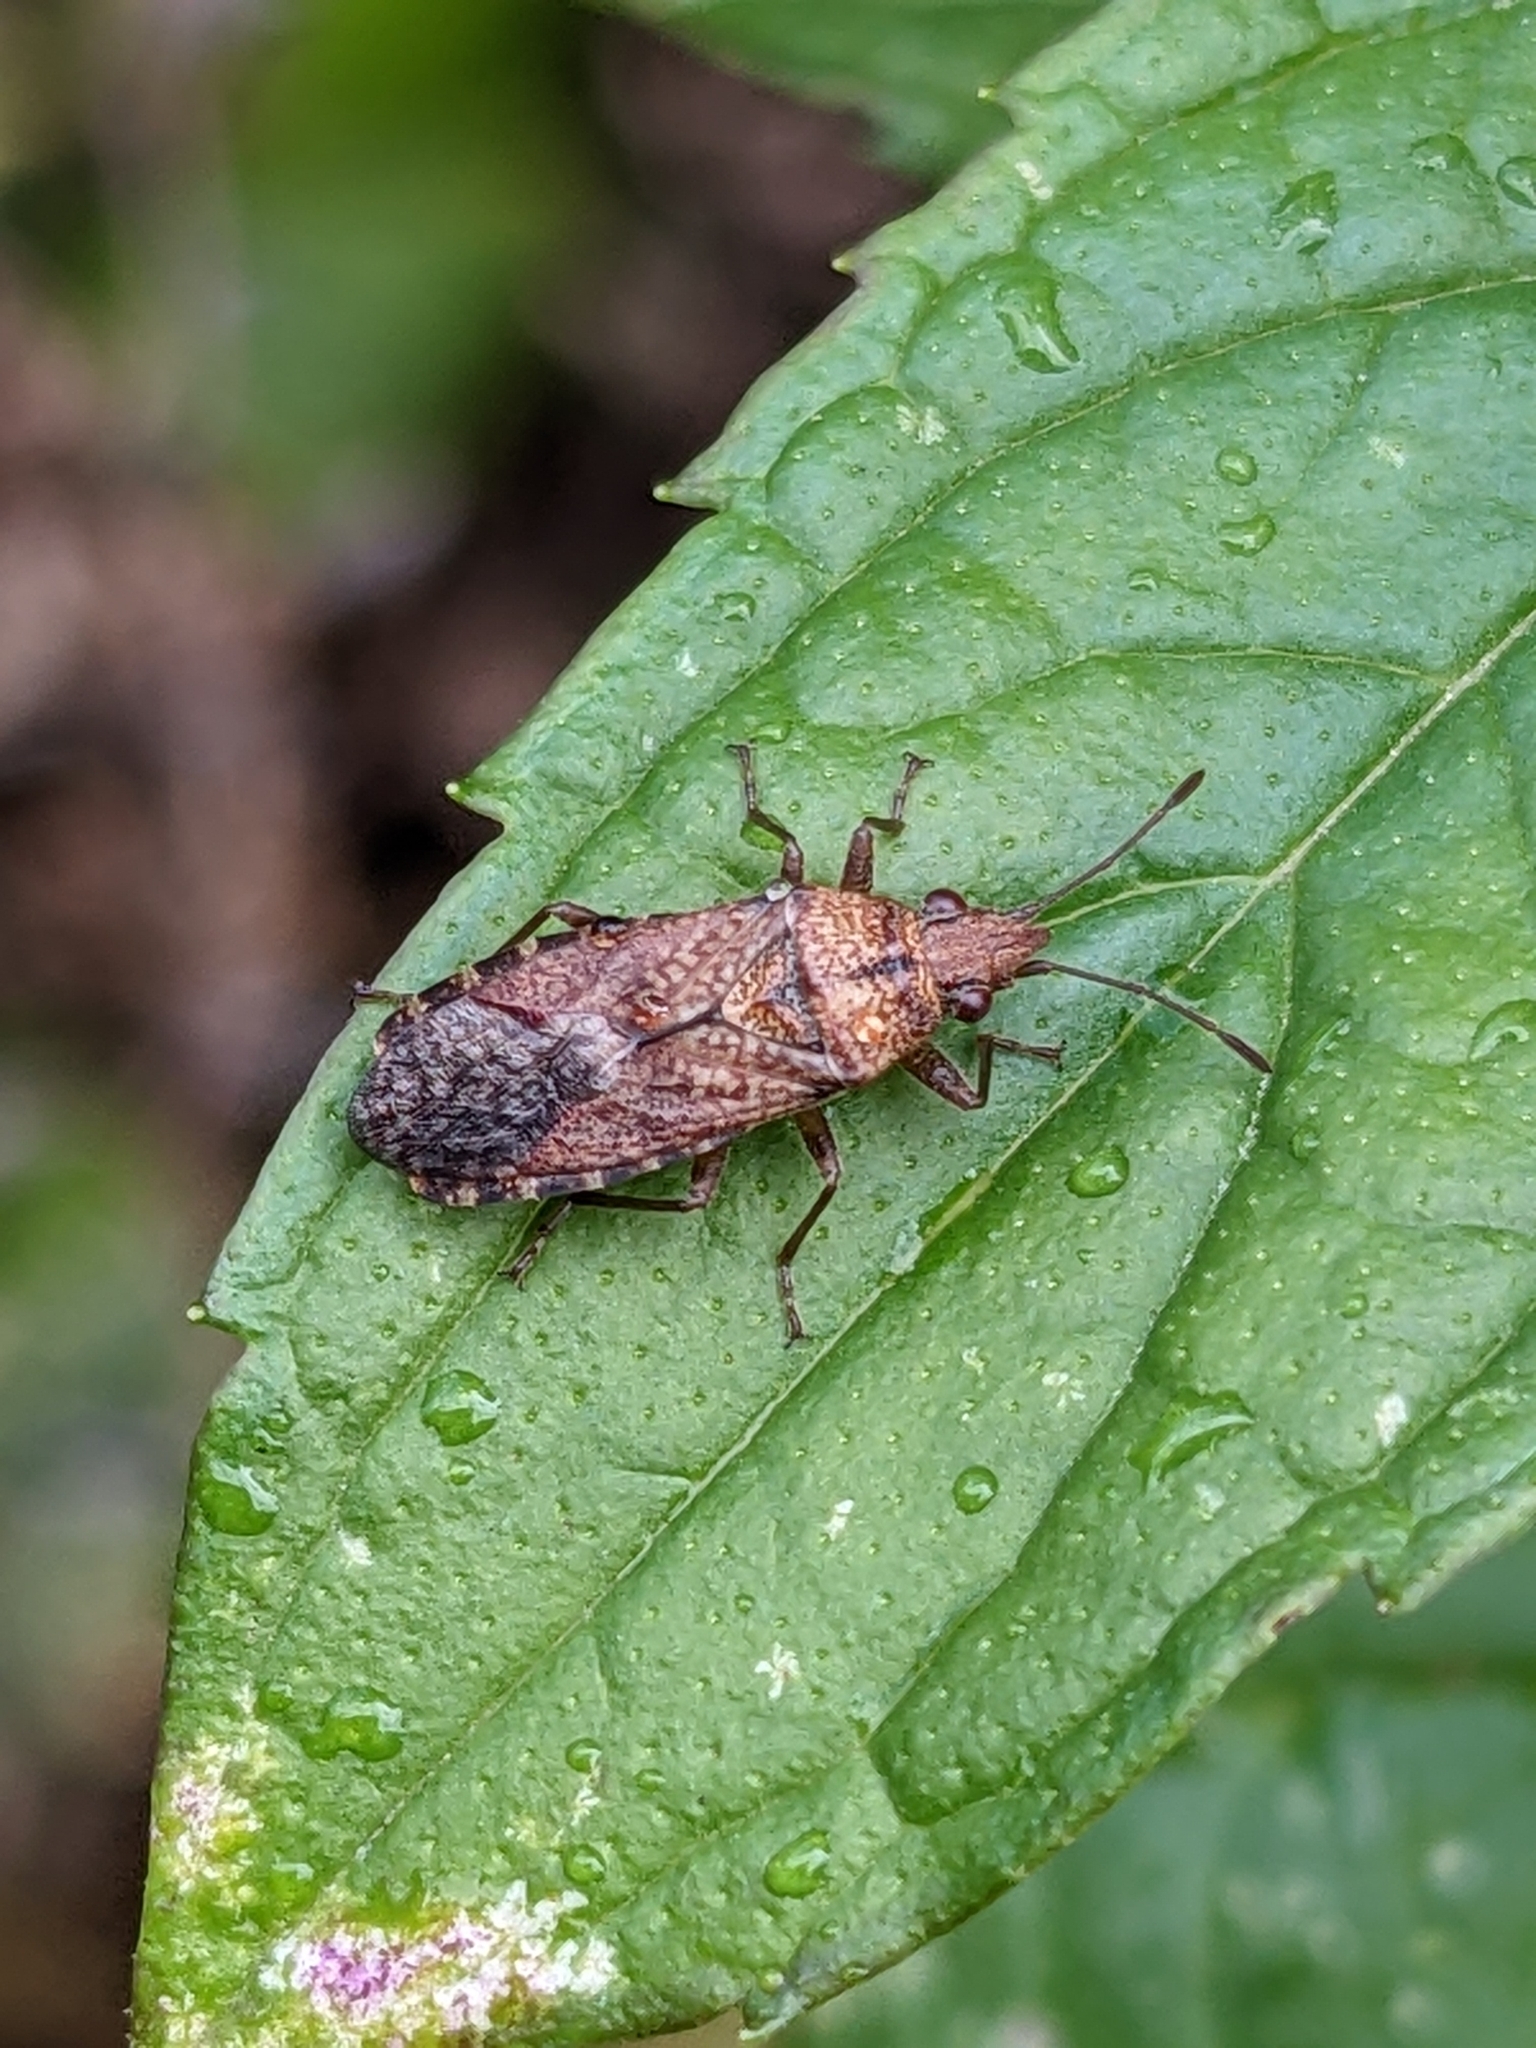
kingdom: Animalia
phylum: Arthropoda
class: Insecta
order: Hemiptera
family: Lygaeidae
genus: Orsillus
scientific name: Orsillus depressus
